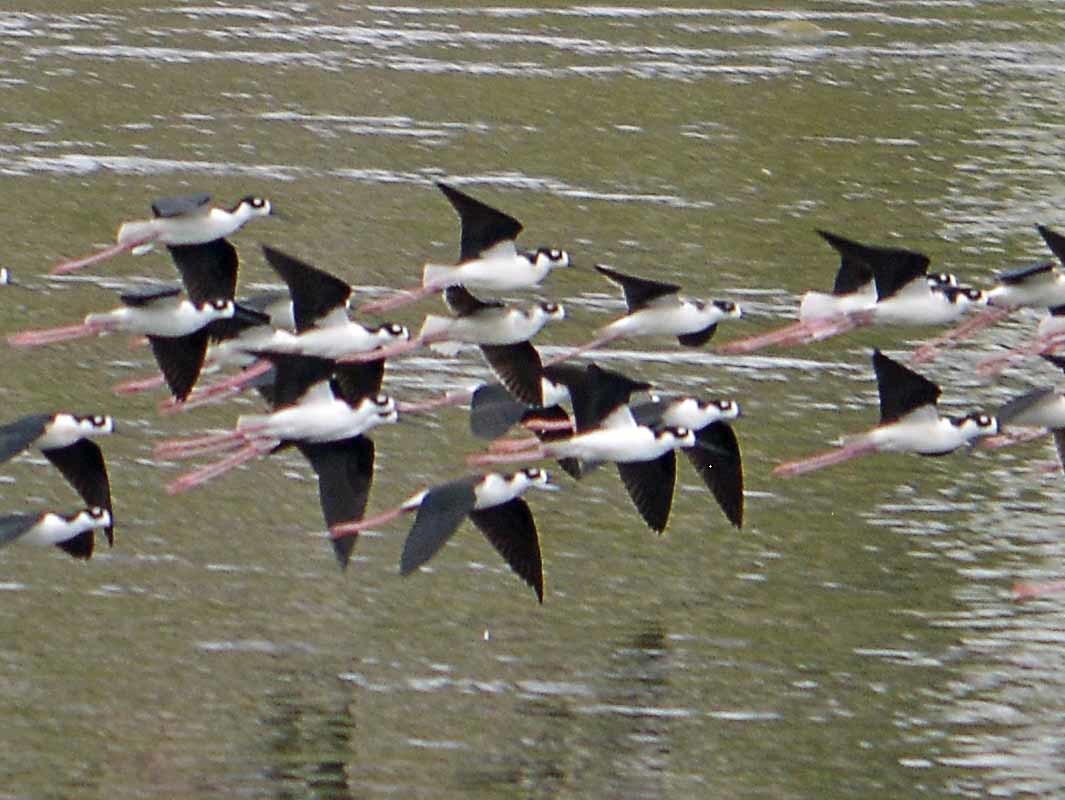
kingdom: Animalia
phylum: Chordata
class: Aves
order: Charadriiformes
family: Recurvirostridae
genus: Himantopus
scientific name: Himantopus mexicanus
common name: Black-necked stilt
